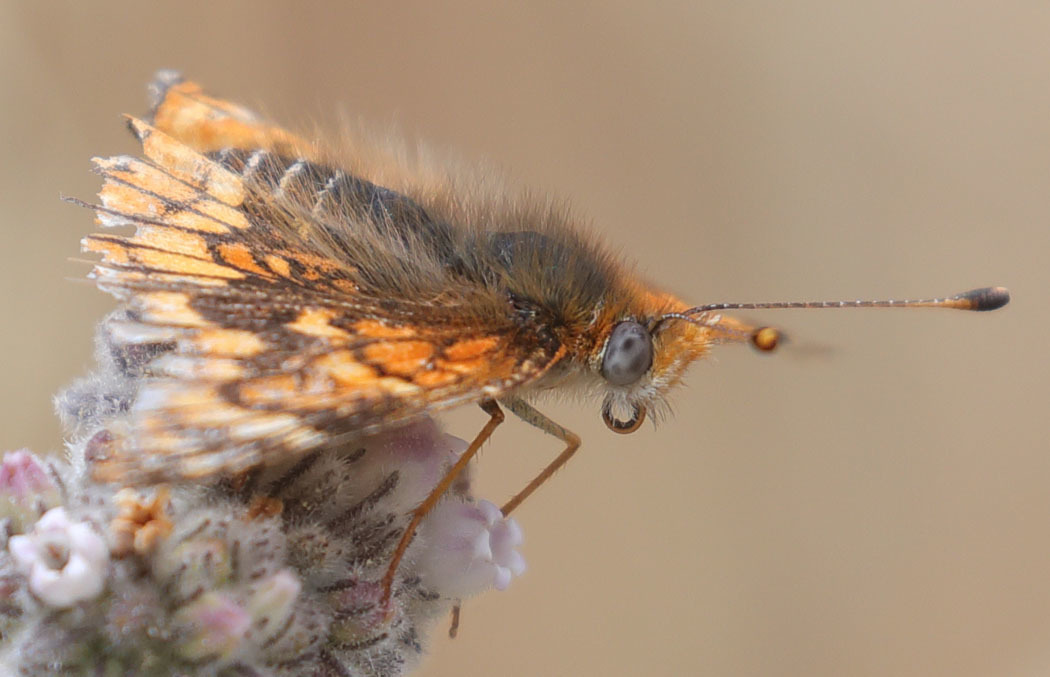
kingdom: Animalia
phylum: Arthropoda
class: Insecta
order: Lepidoptera
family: Nymphalidae
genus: Chlosyne
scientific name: Chlosyne gabbii
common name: Gabb's checkerspot
